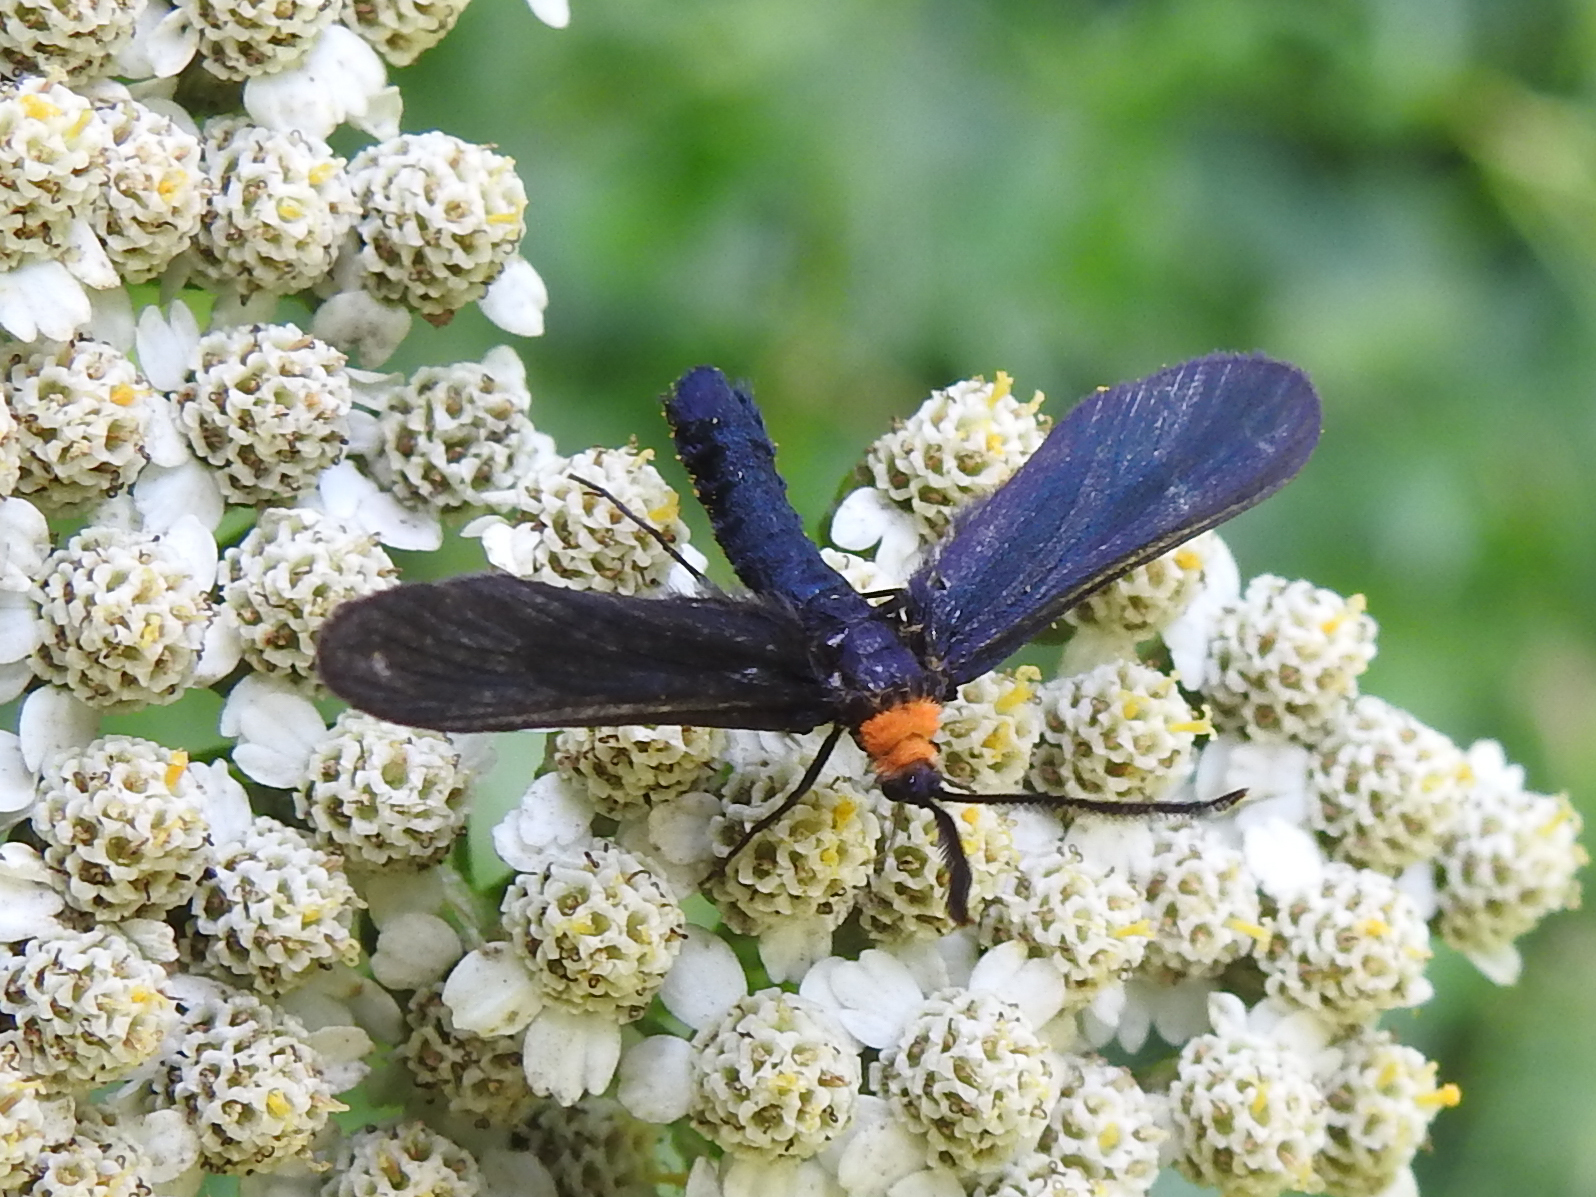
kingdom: Animalia
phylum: Arthropoda
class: Insecta
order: Lepidoptera
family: Zygaenidae
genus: Harrisina
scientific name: Harrisina americana
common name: Grapeleaf skeletonizer moth
